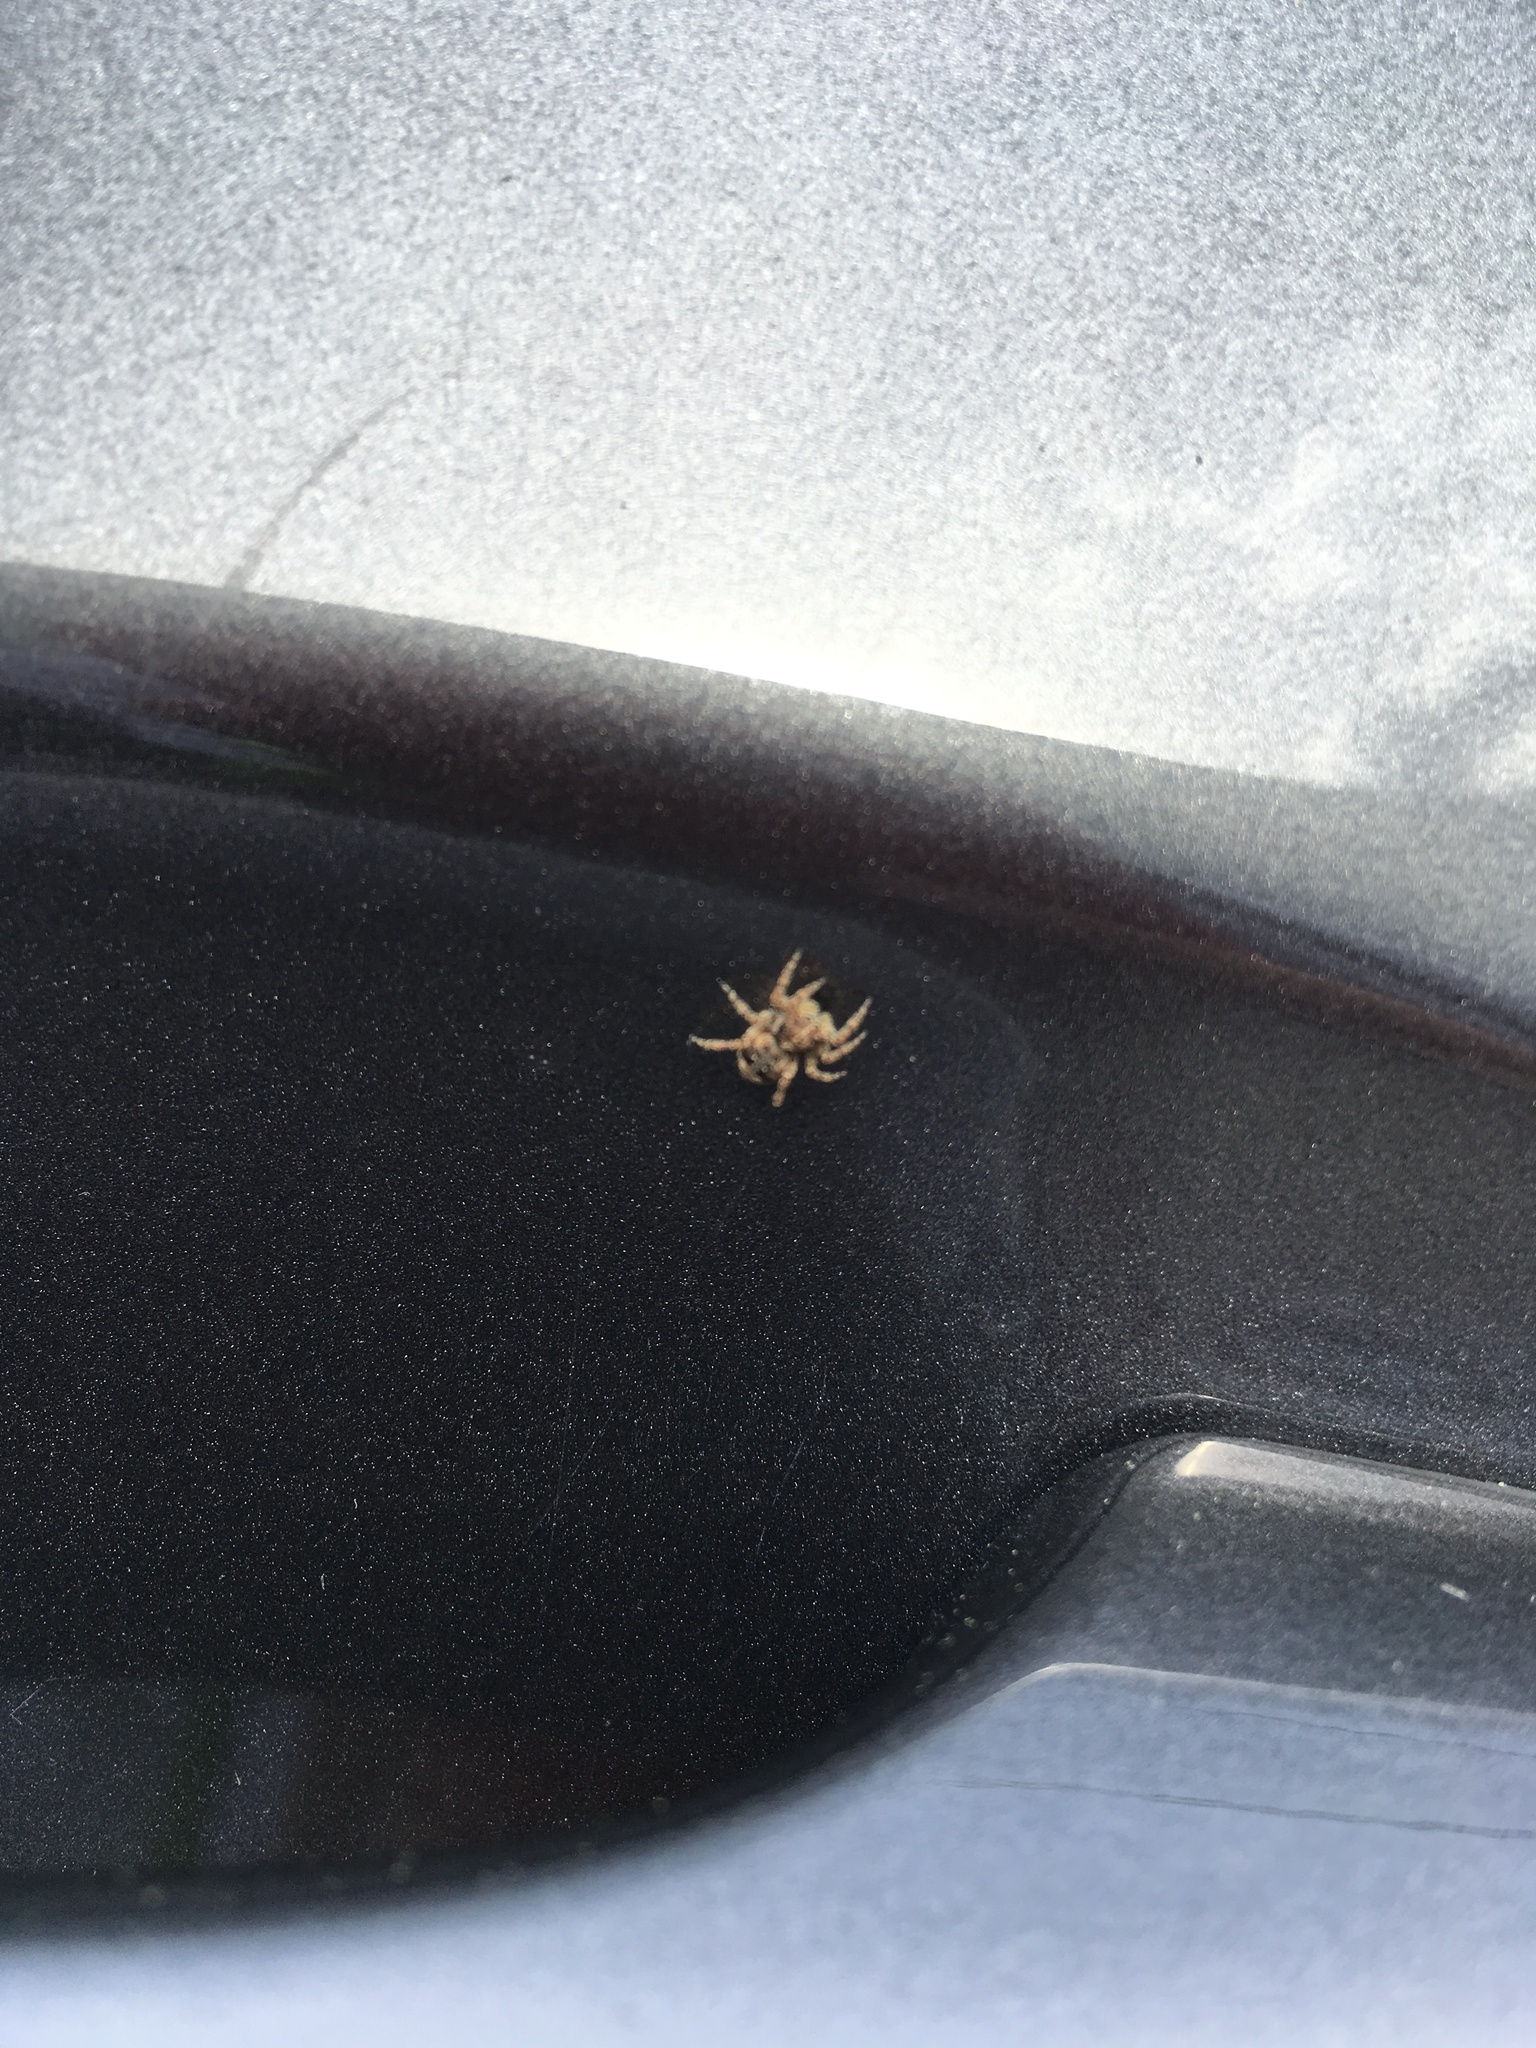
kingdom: Animalia
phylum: Arthropoda
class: Arachnida
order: Araneae
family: Salticidae
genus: Attulus
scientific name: Attulus fasciger
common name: Asiatic wall jumping spider
